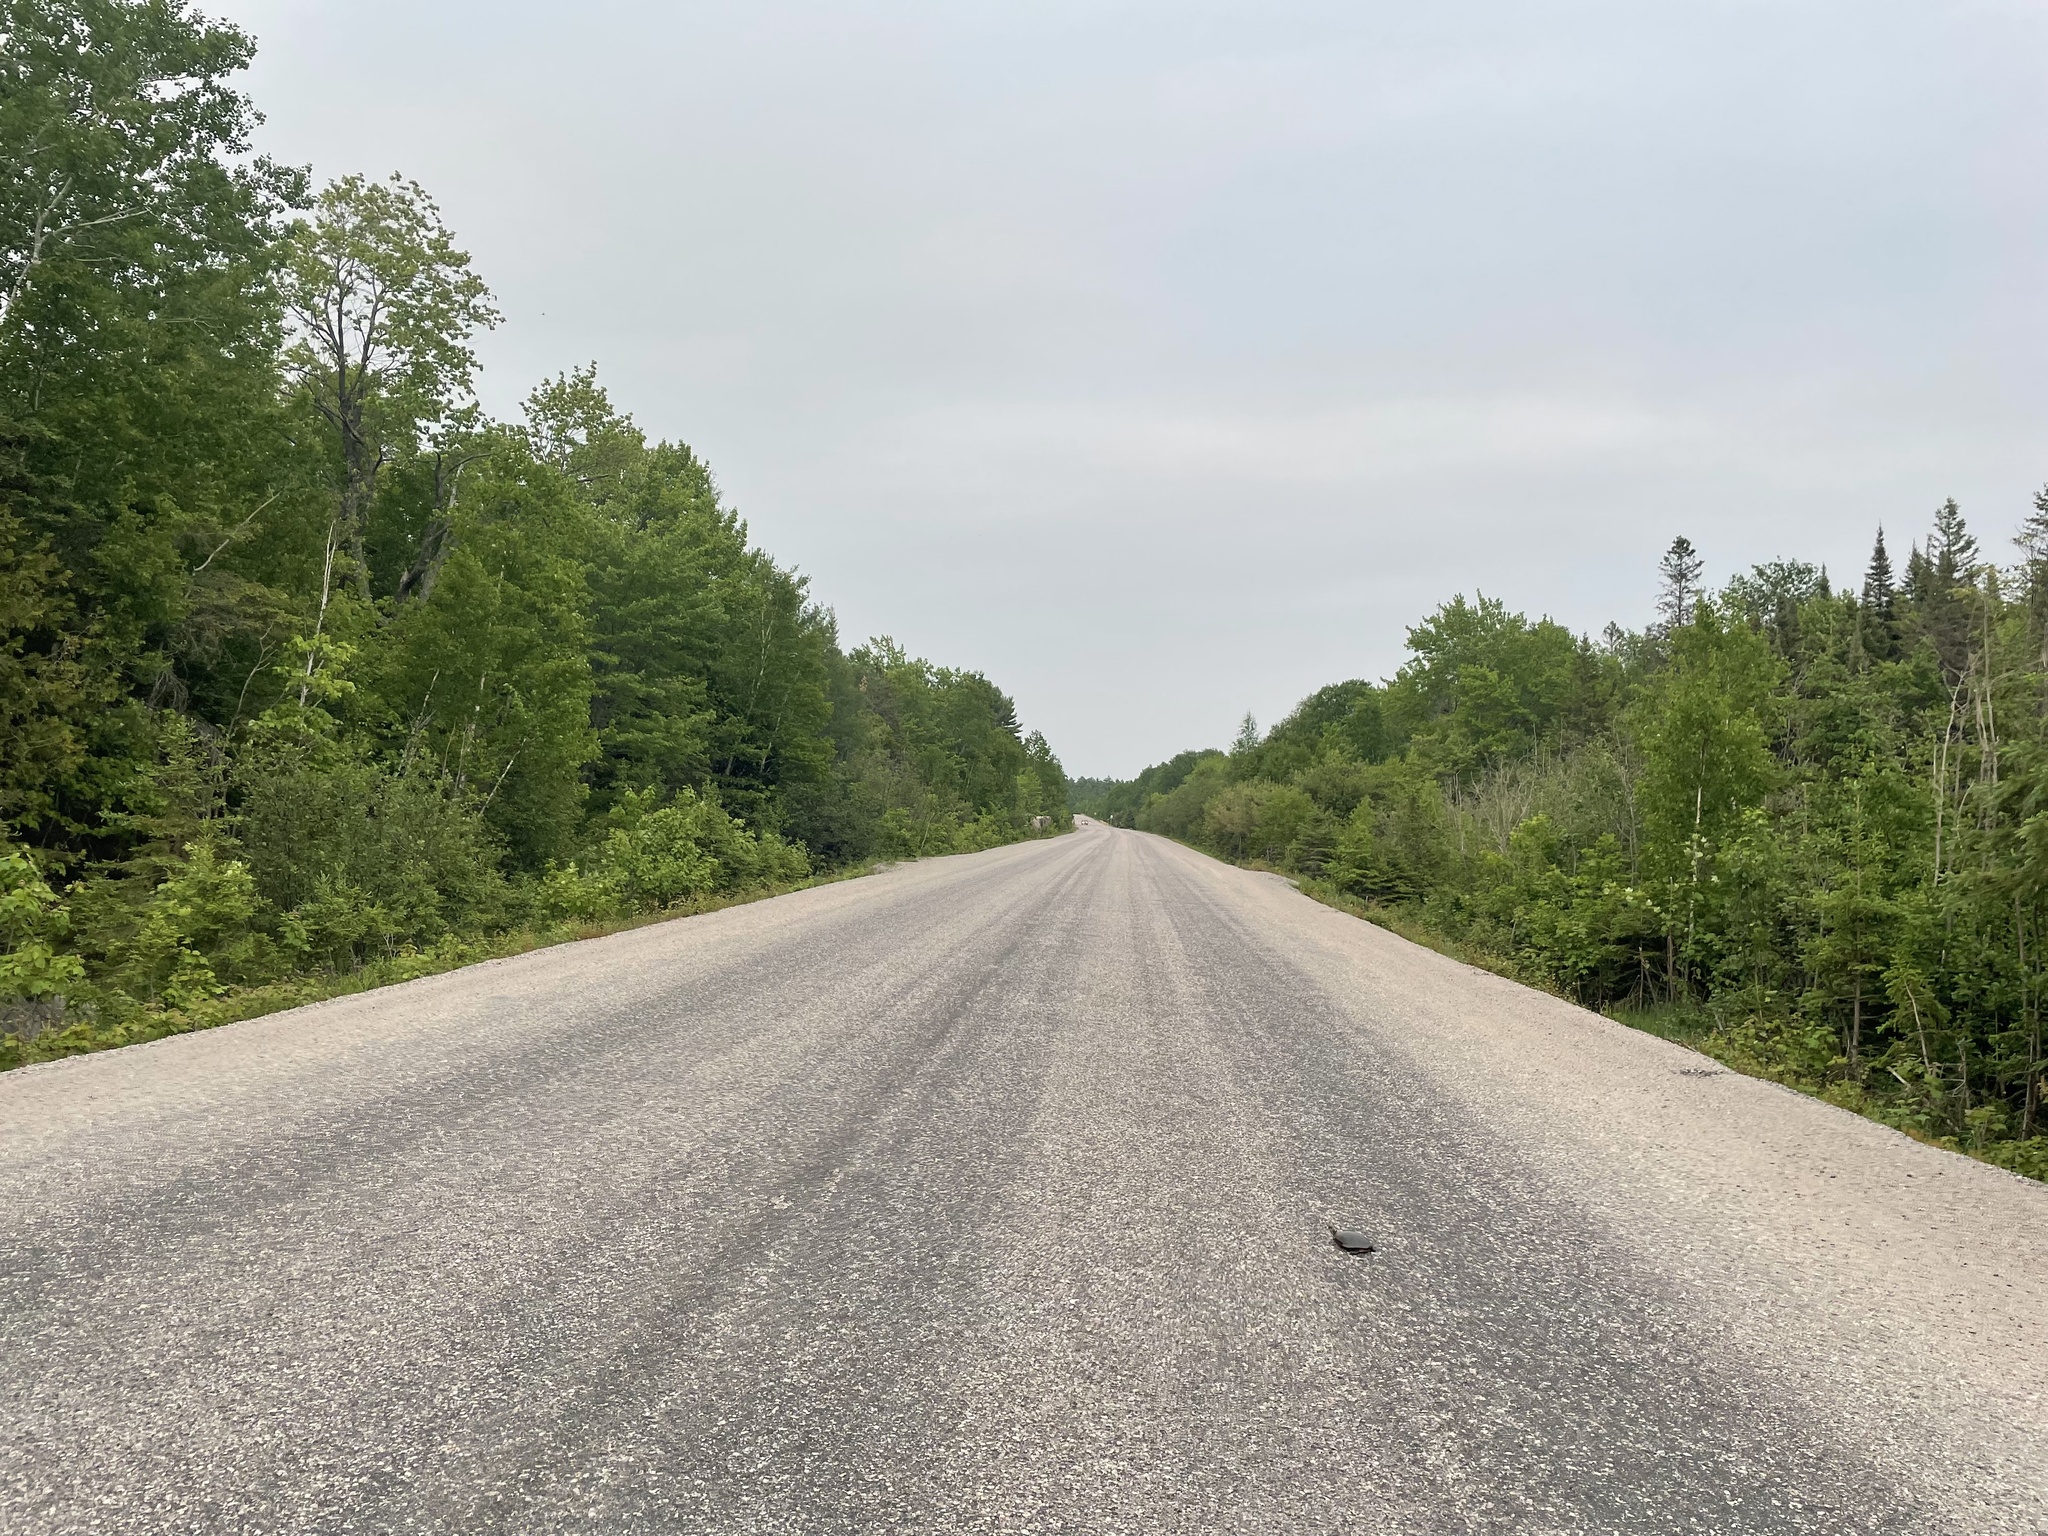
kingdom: Animalia
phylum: Chordata
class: Testudines
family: Emydidae
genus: Chrysemys
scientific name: Chrysemys picta
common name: Painted turtle
